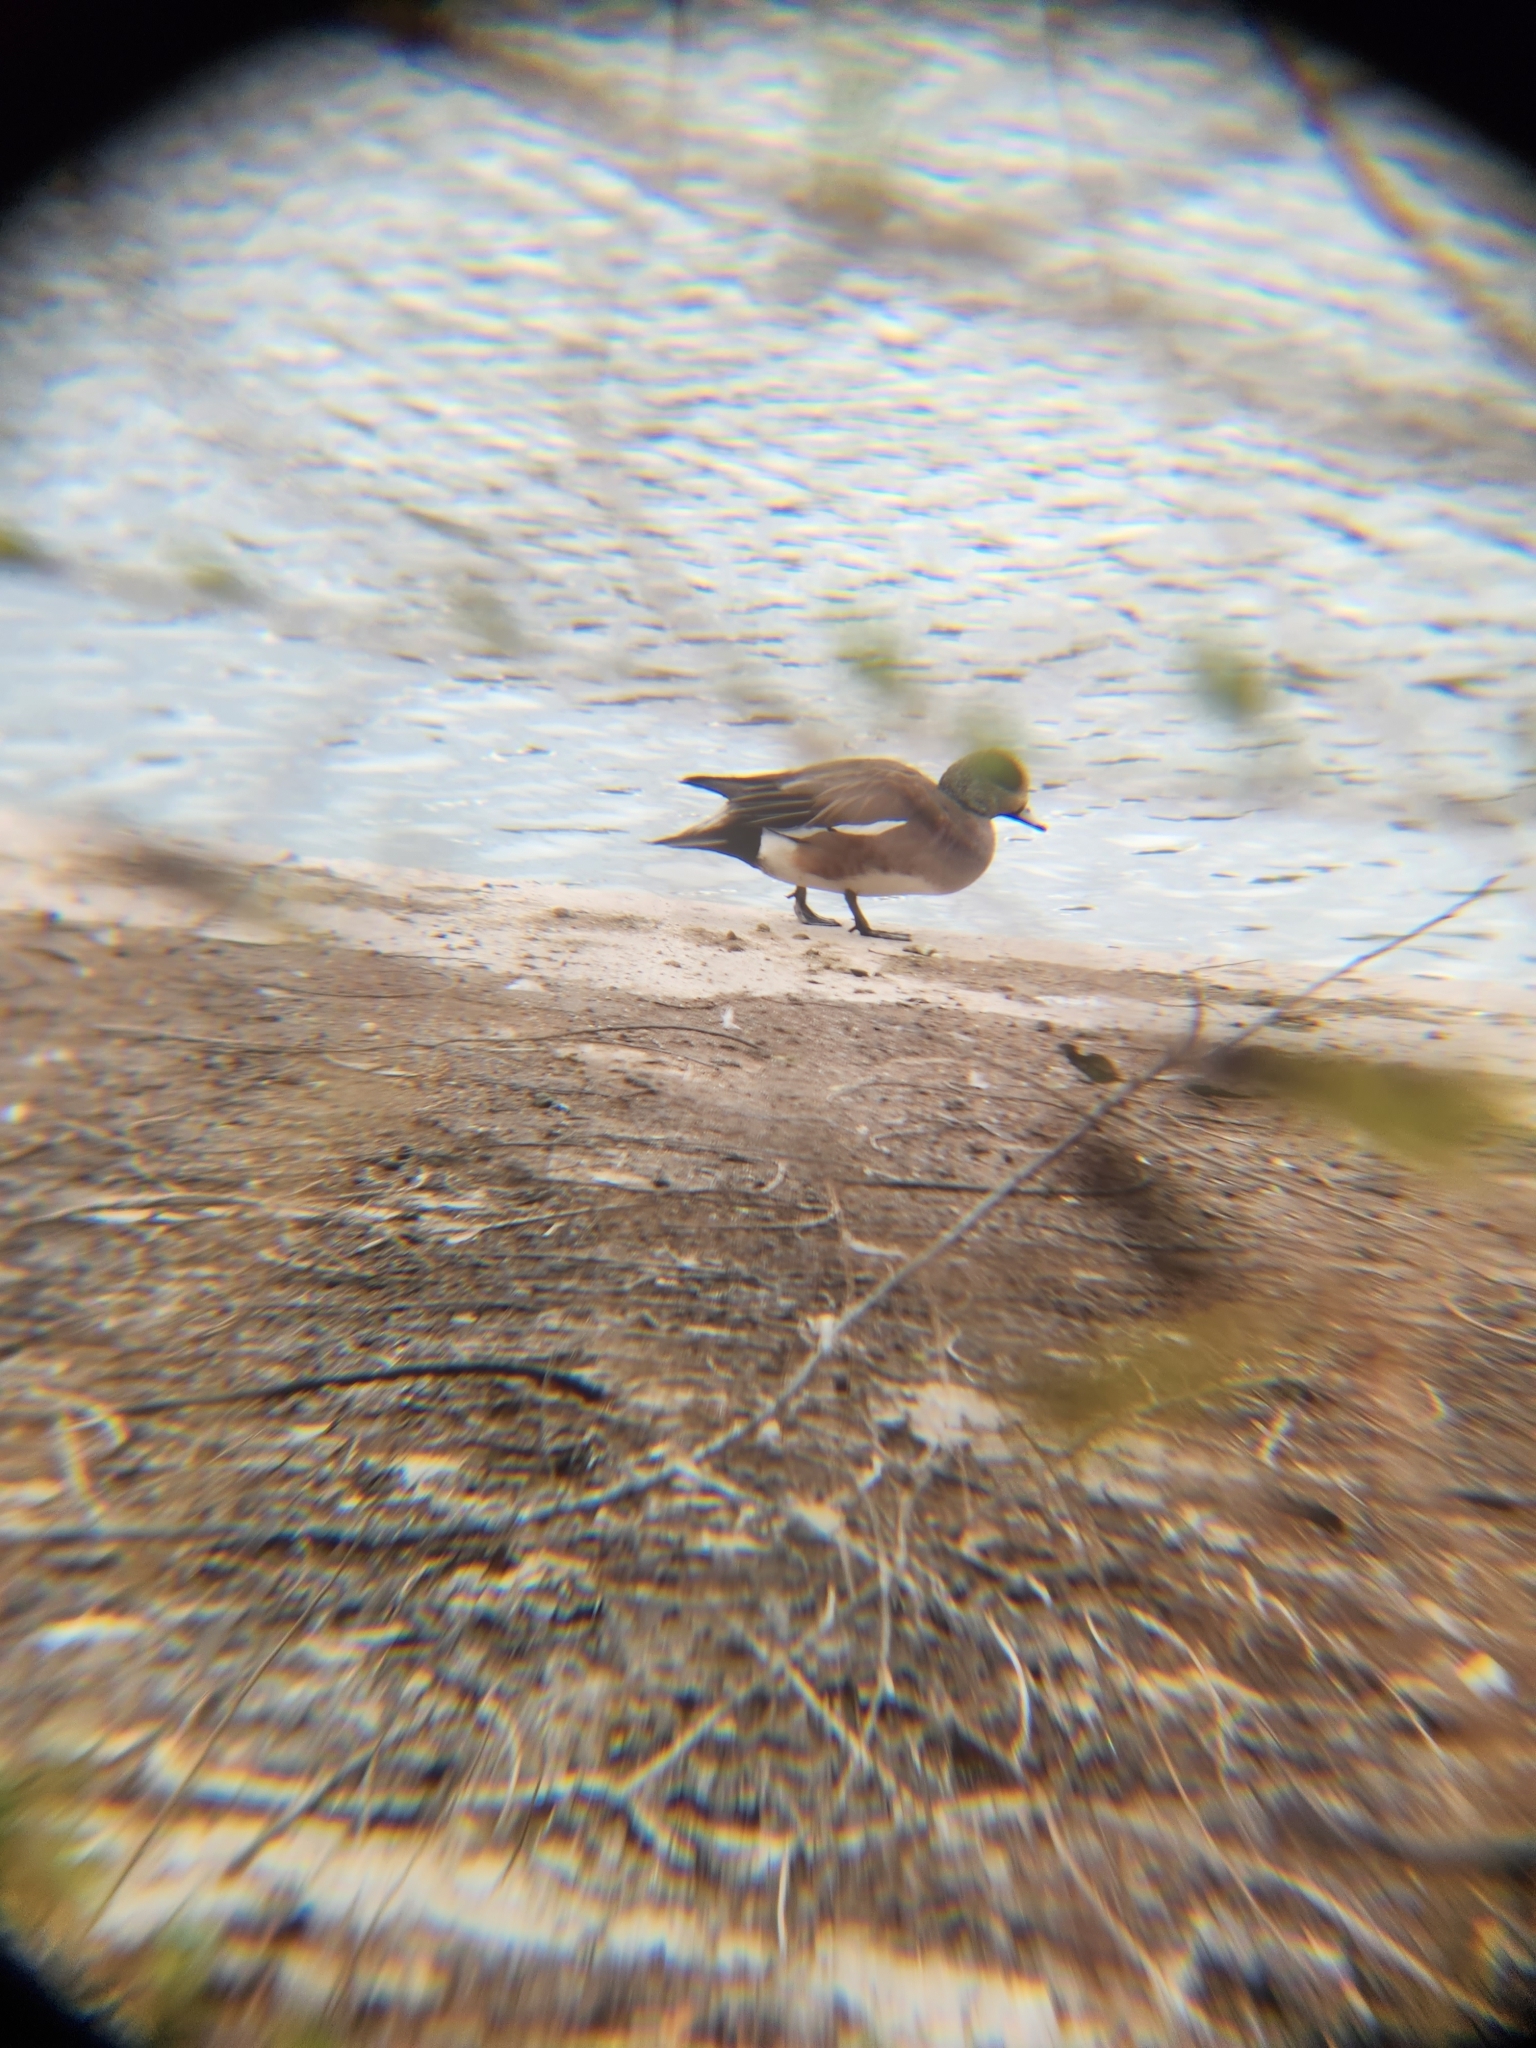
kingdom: Animalia
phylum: Chordata
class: Aves
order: Anseriformes
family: Anatidae
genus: Mareca
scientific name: Mareca americana
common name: American wigeon
